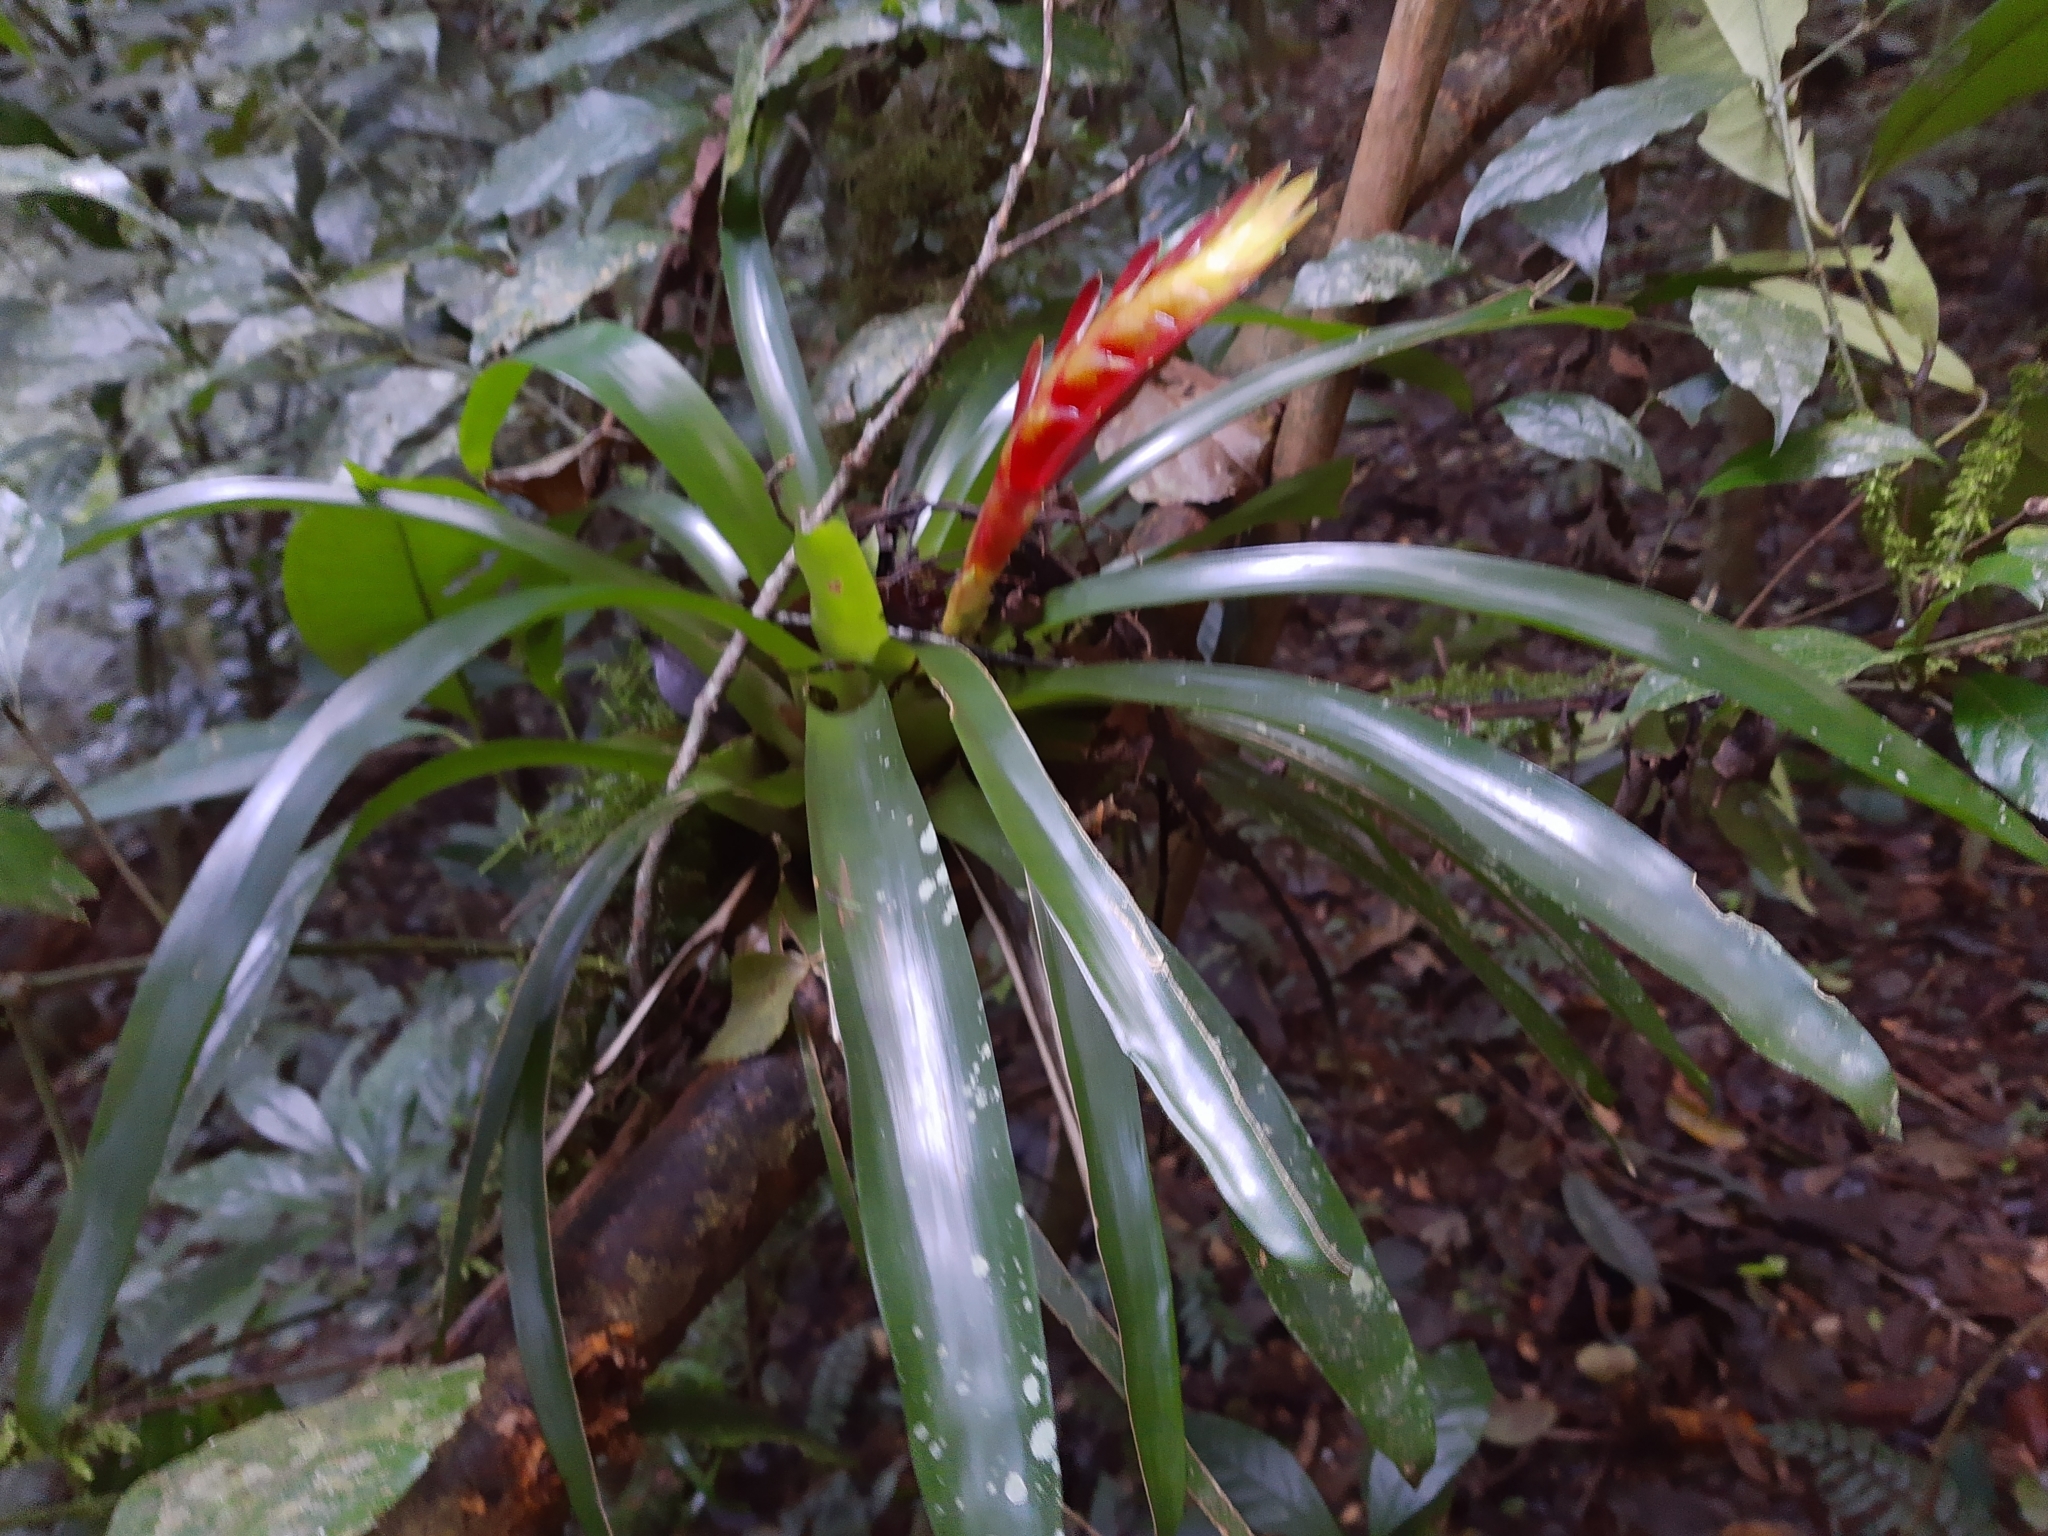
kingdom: Plantae
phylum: Tracheophyta
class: Liliopsida
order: Poales
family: Bromeliaceae
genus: Vriesea
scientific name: Vriesea incurvata
